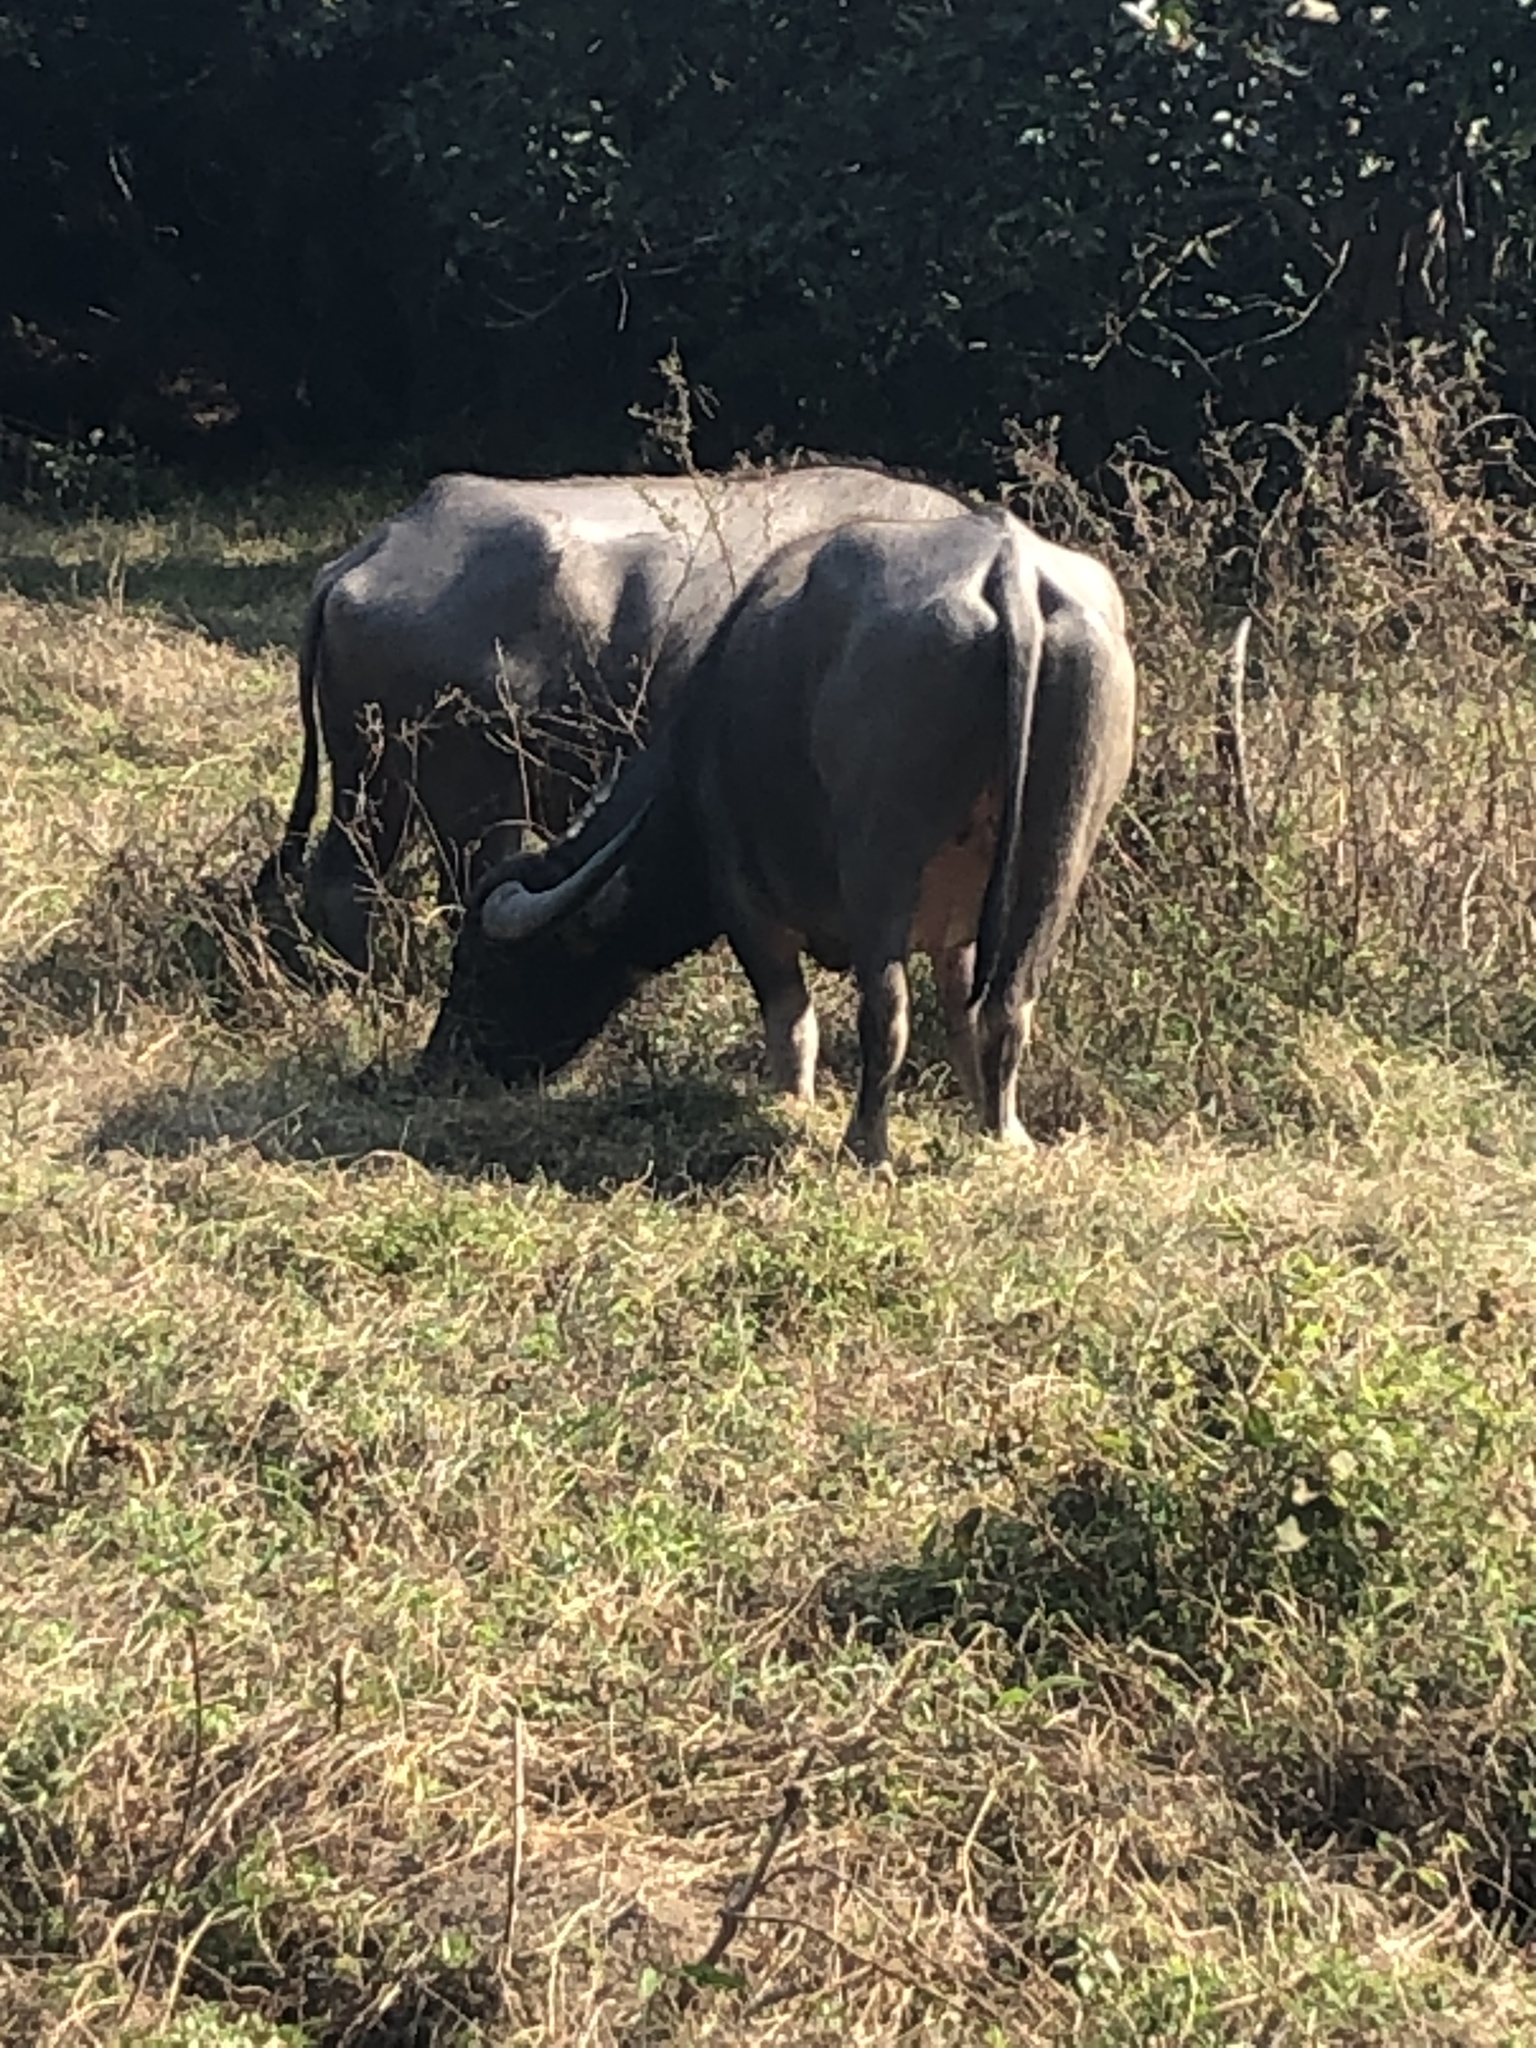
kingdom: Animalia
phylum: Chordata
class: Mammalia
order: Artiodactyla
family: Bovidae
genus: Bubalus
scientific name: Bubalus bubalis
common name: Water buffalo
